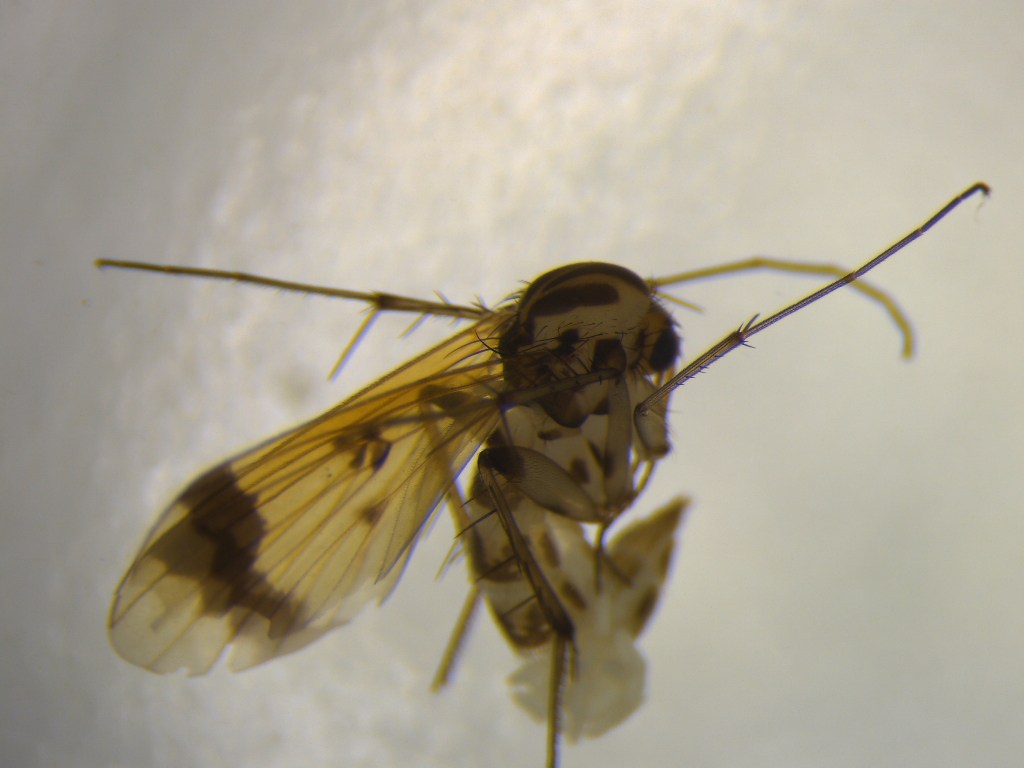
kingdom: Animalia
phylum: Arthropoda
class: Insecta
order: Diptera
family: Mycetophilidae
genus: Mycetophila
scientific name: Mycetophila latifascia
